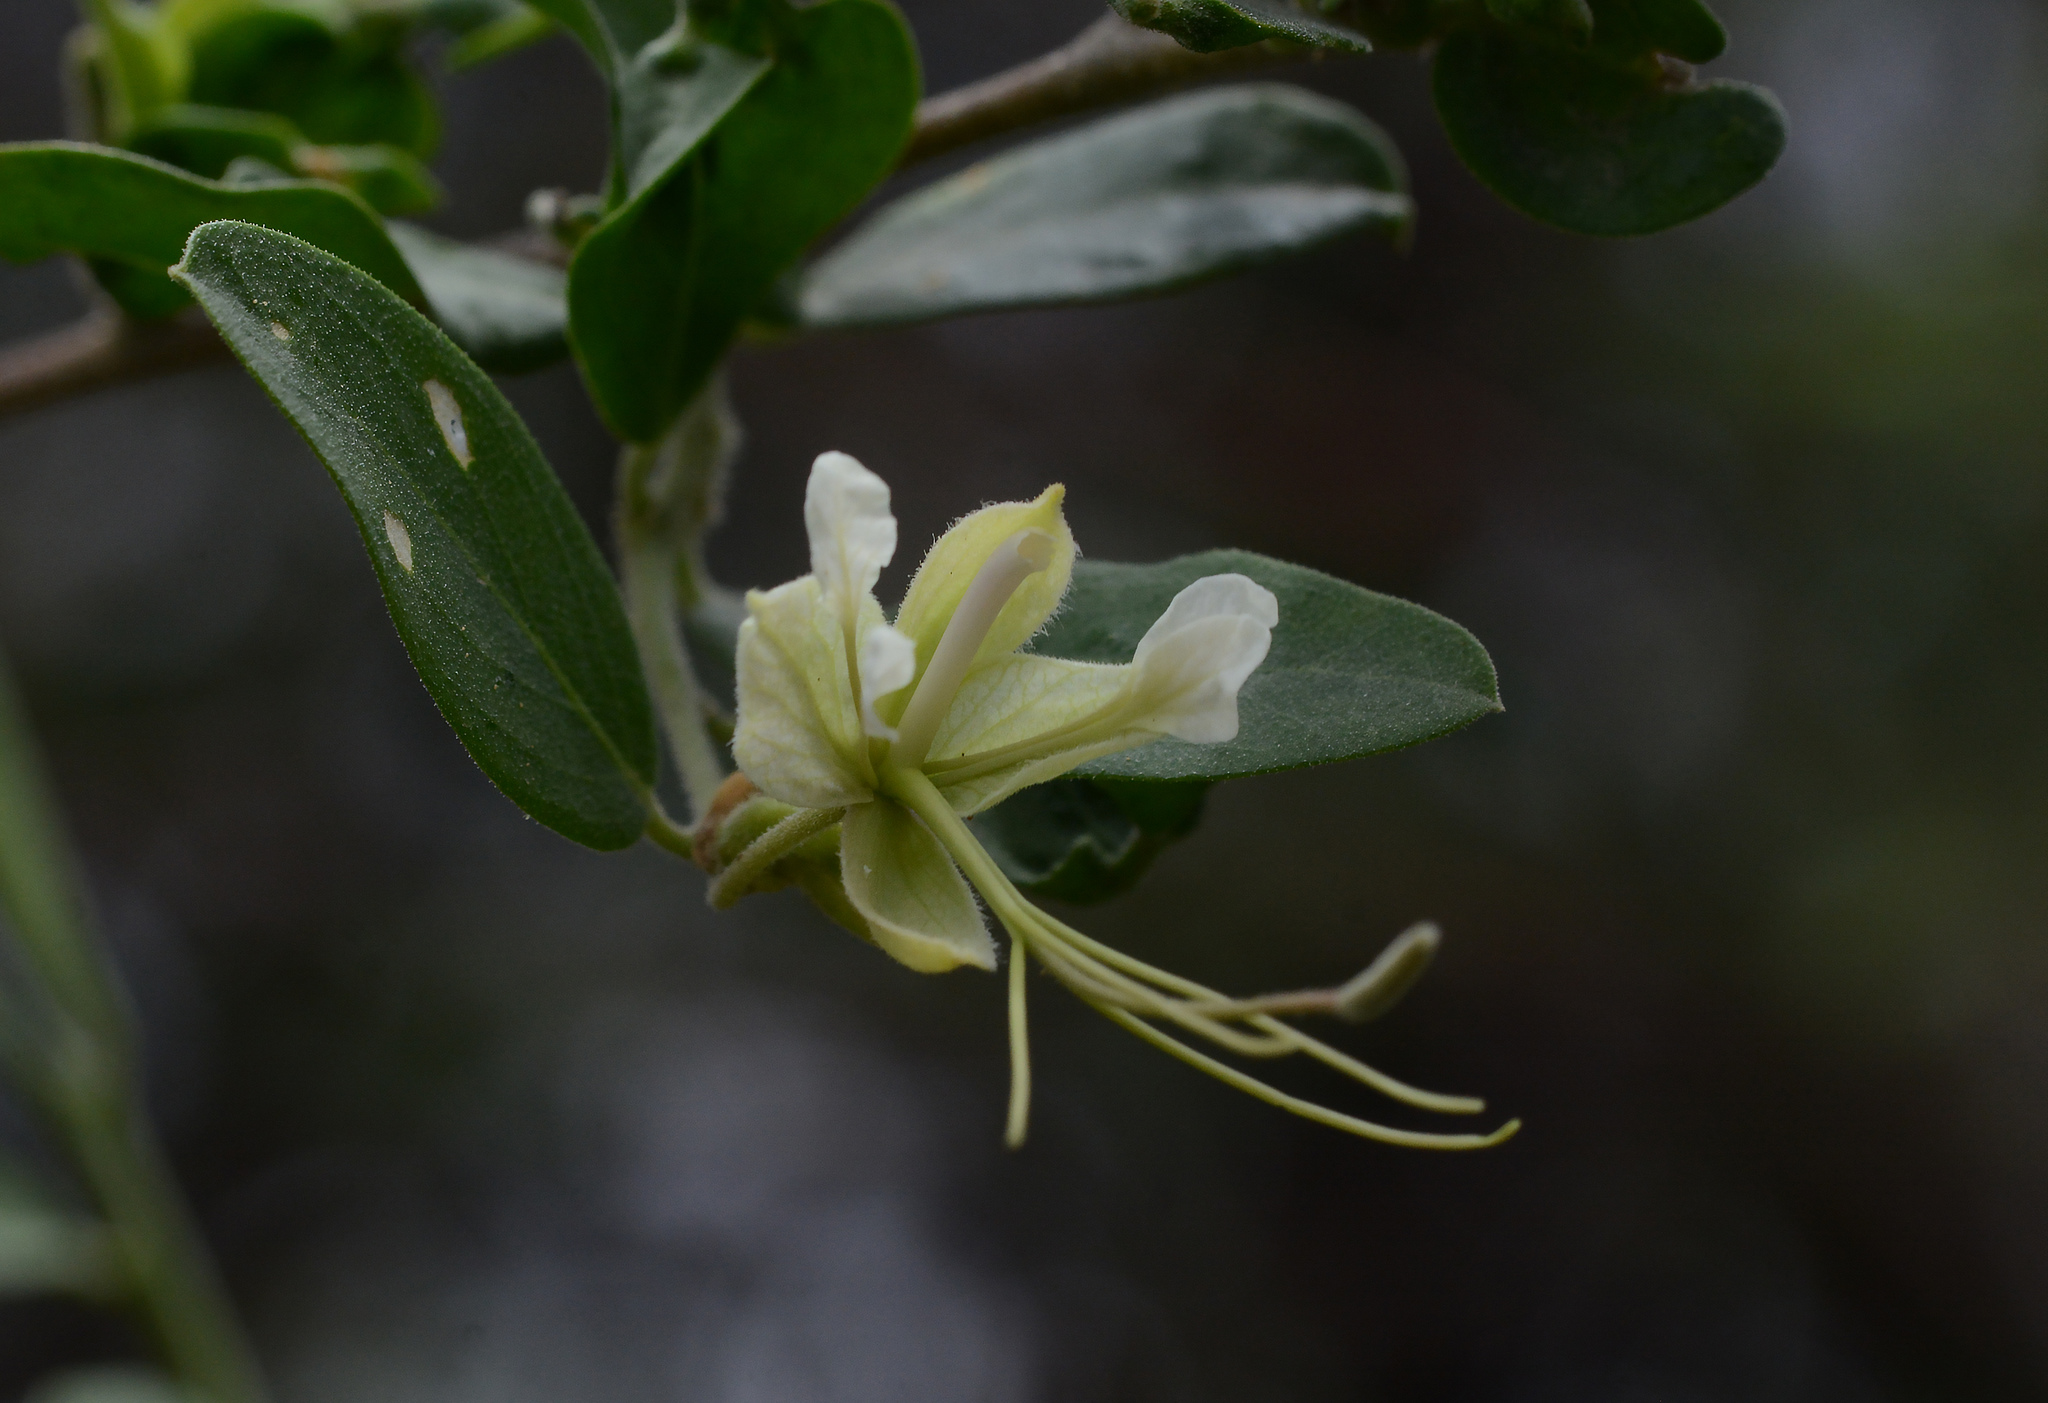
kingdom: Plantae
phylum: Tracheophyta
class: Magnoliopsida
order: Brassicales
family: Capparaceae
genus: Cadaba
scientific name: Cadaba fruticosa
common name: Indian cadaba
